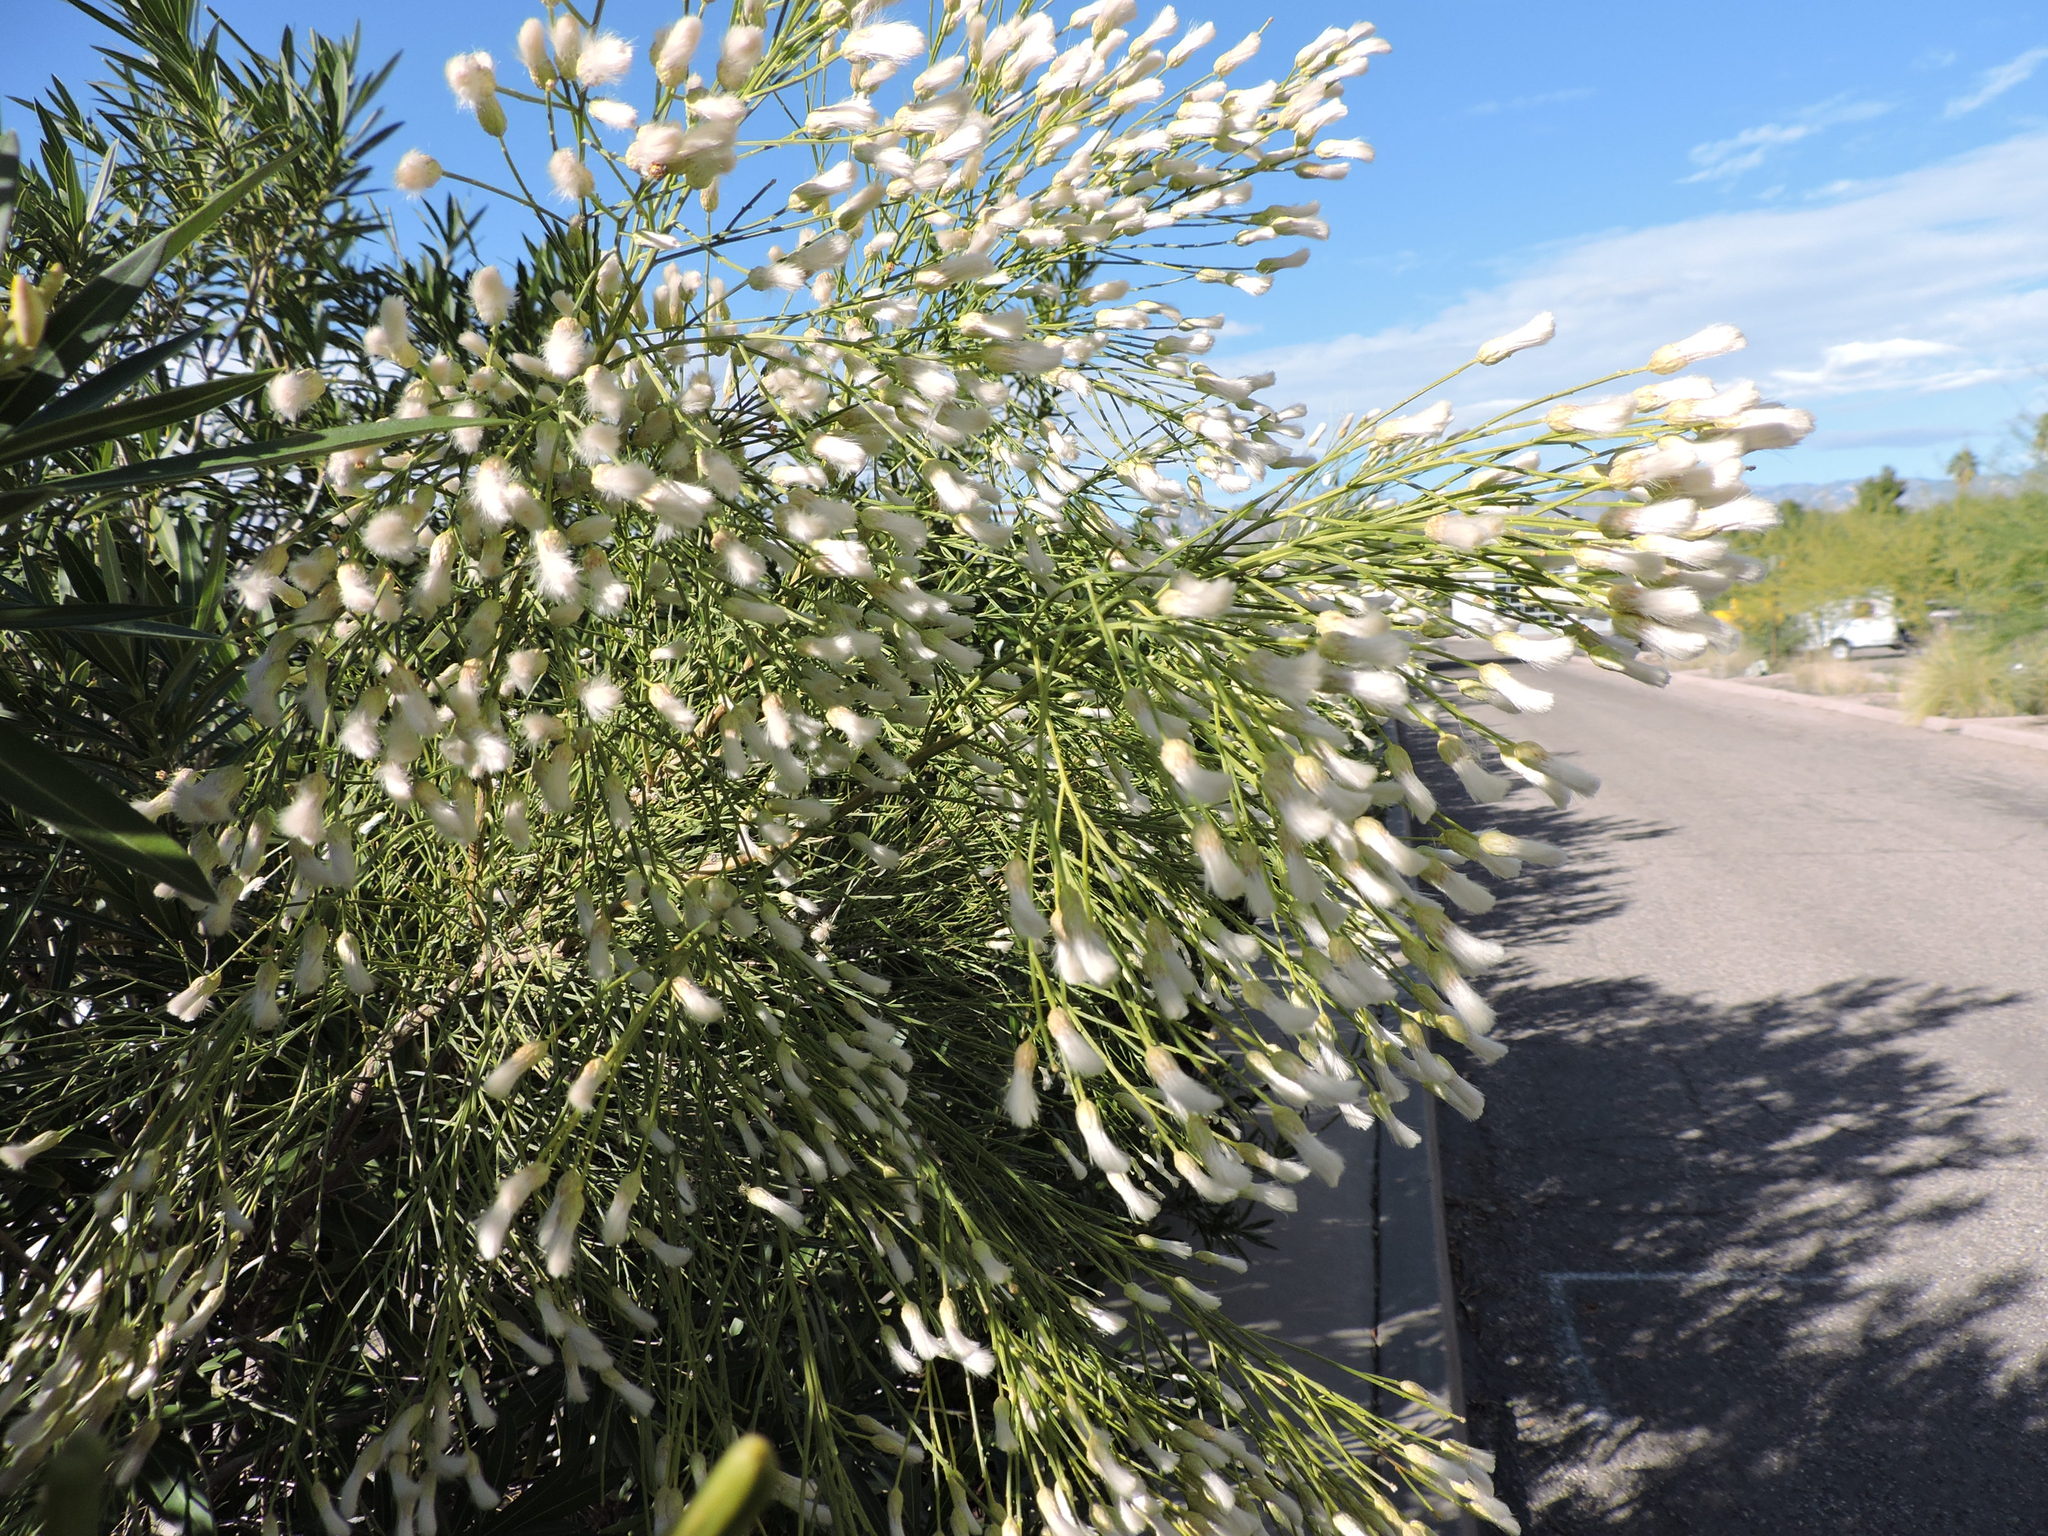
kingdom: Plantae
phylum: Tracheophyta
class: Magnoliopsida
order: Asterales
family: Asteraceae
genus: Baccharis
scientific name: Baccharis sarothroides
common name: Desert-broom
